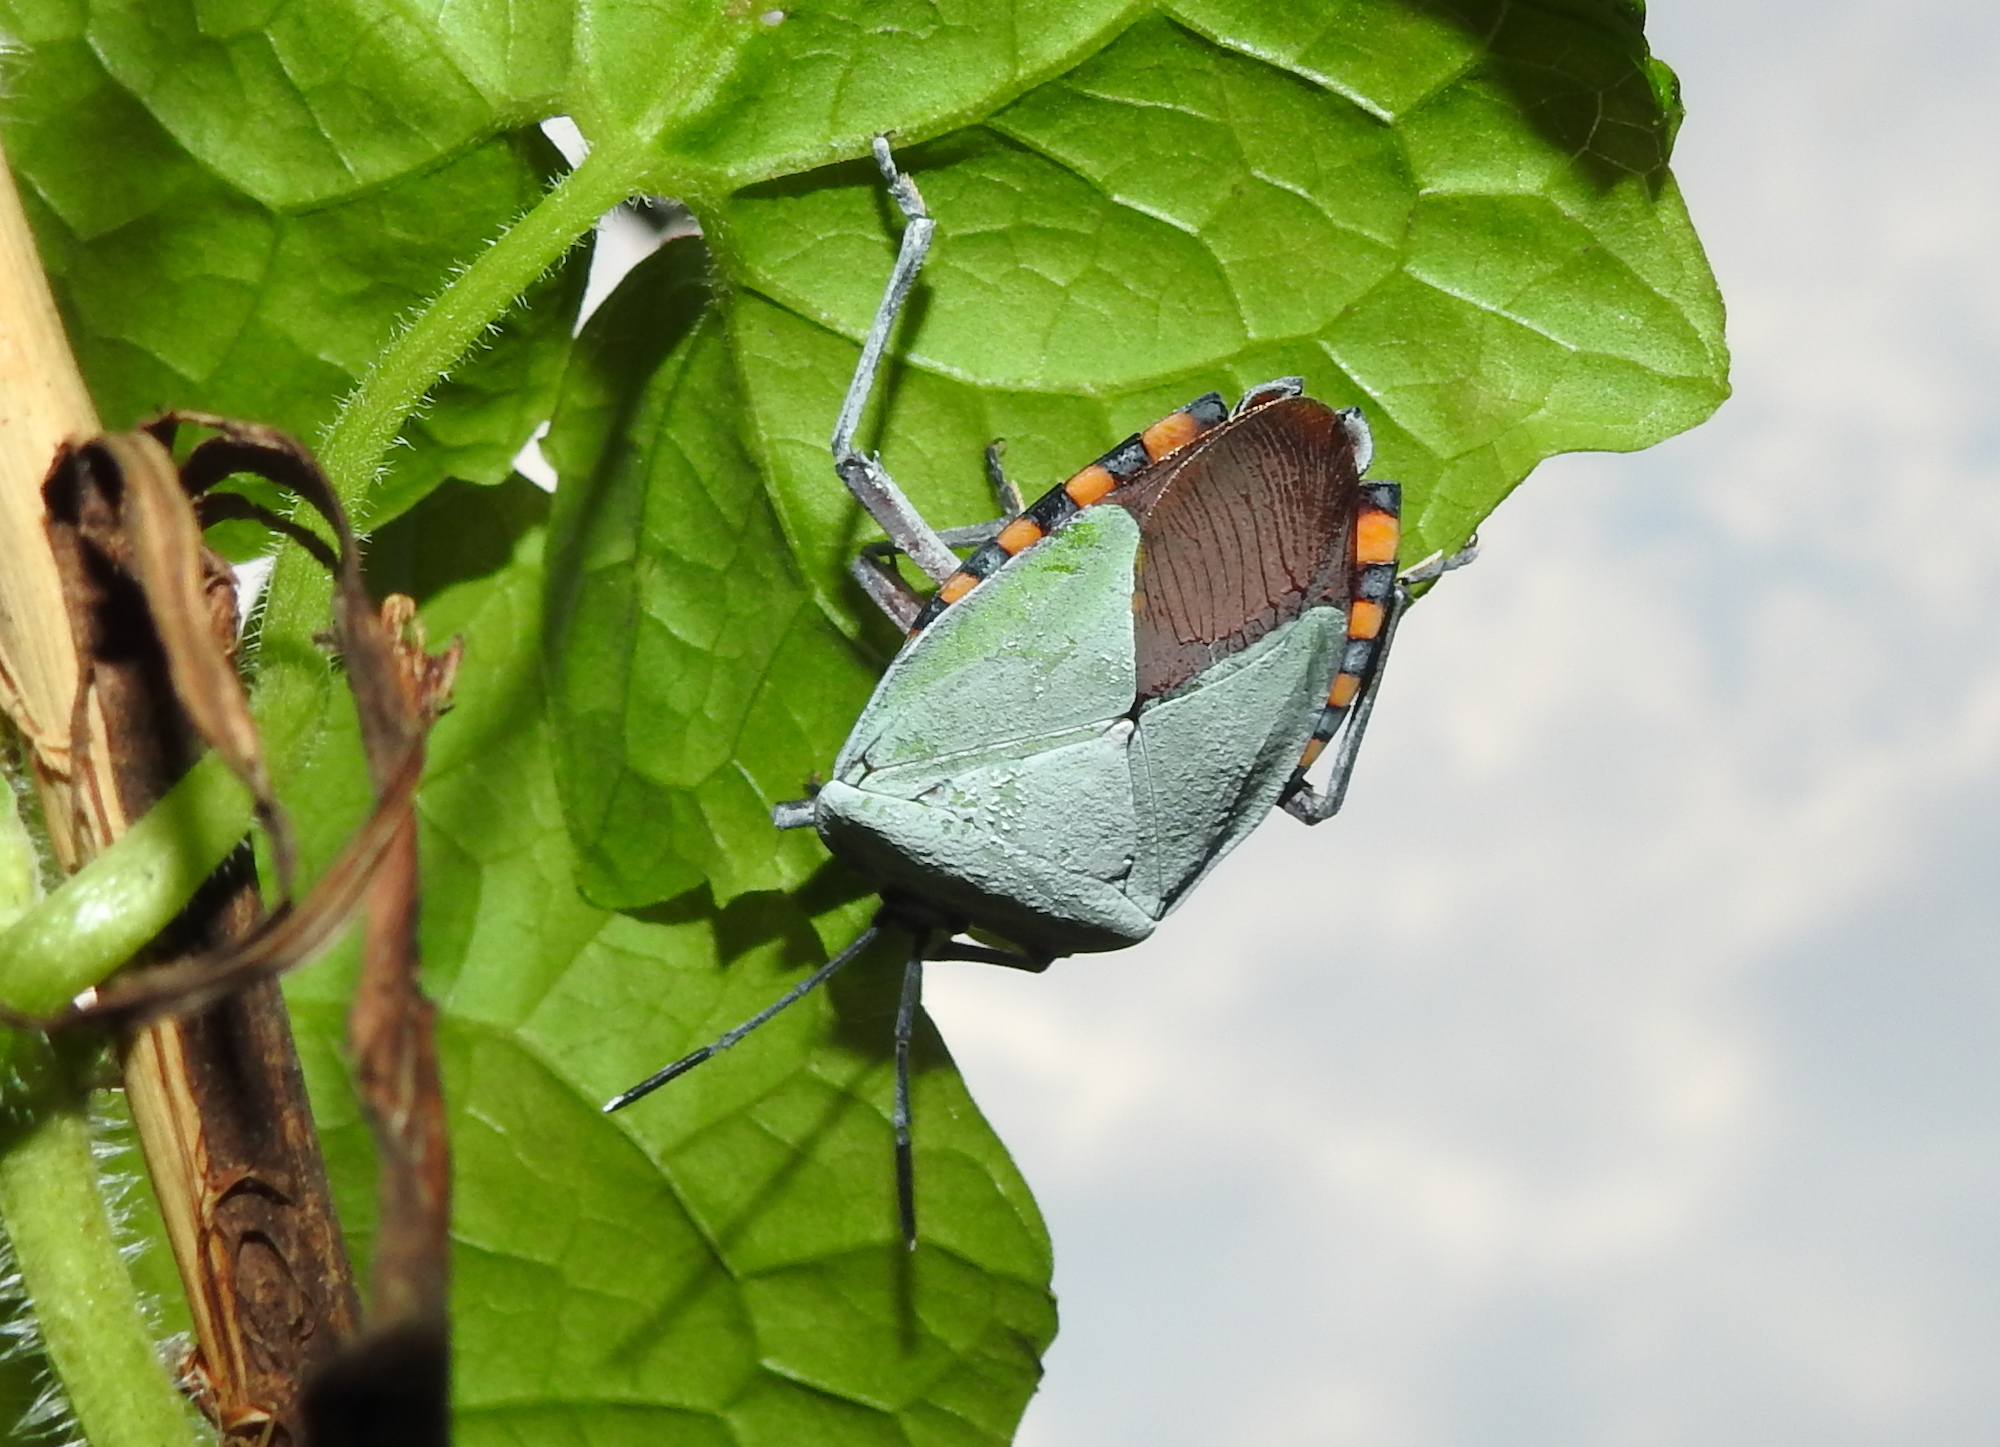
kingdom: Animalia
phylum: Arthropoda
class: Insecta
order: Hemiptera
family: Tessaratomidae
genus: Pycanum
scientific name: Pycanum alternatum
